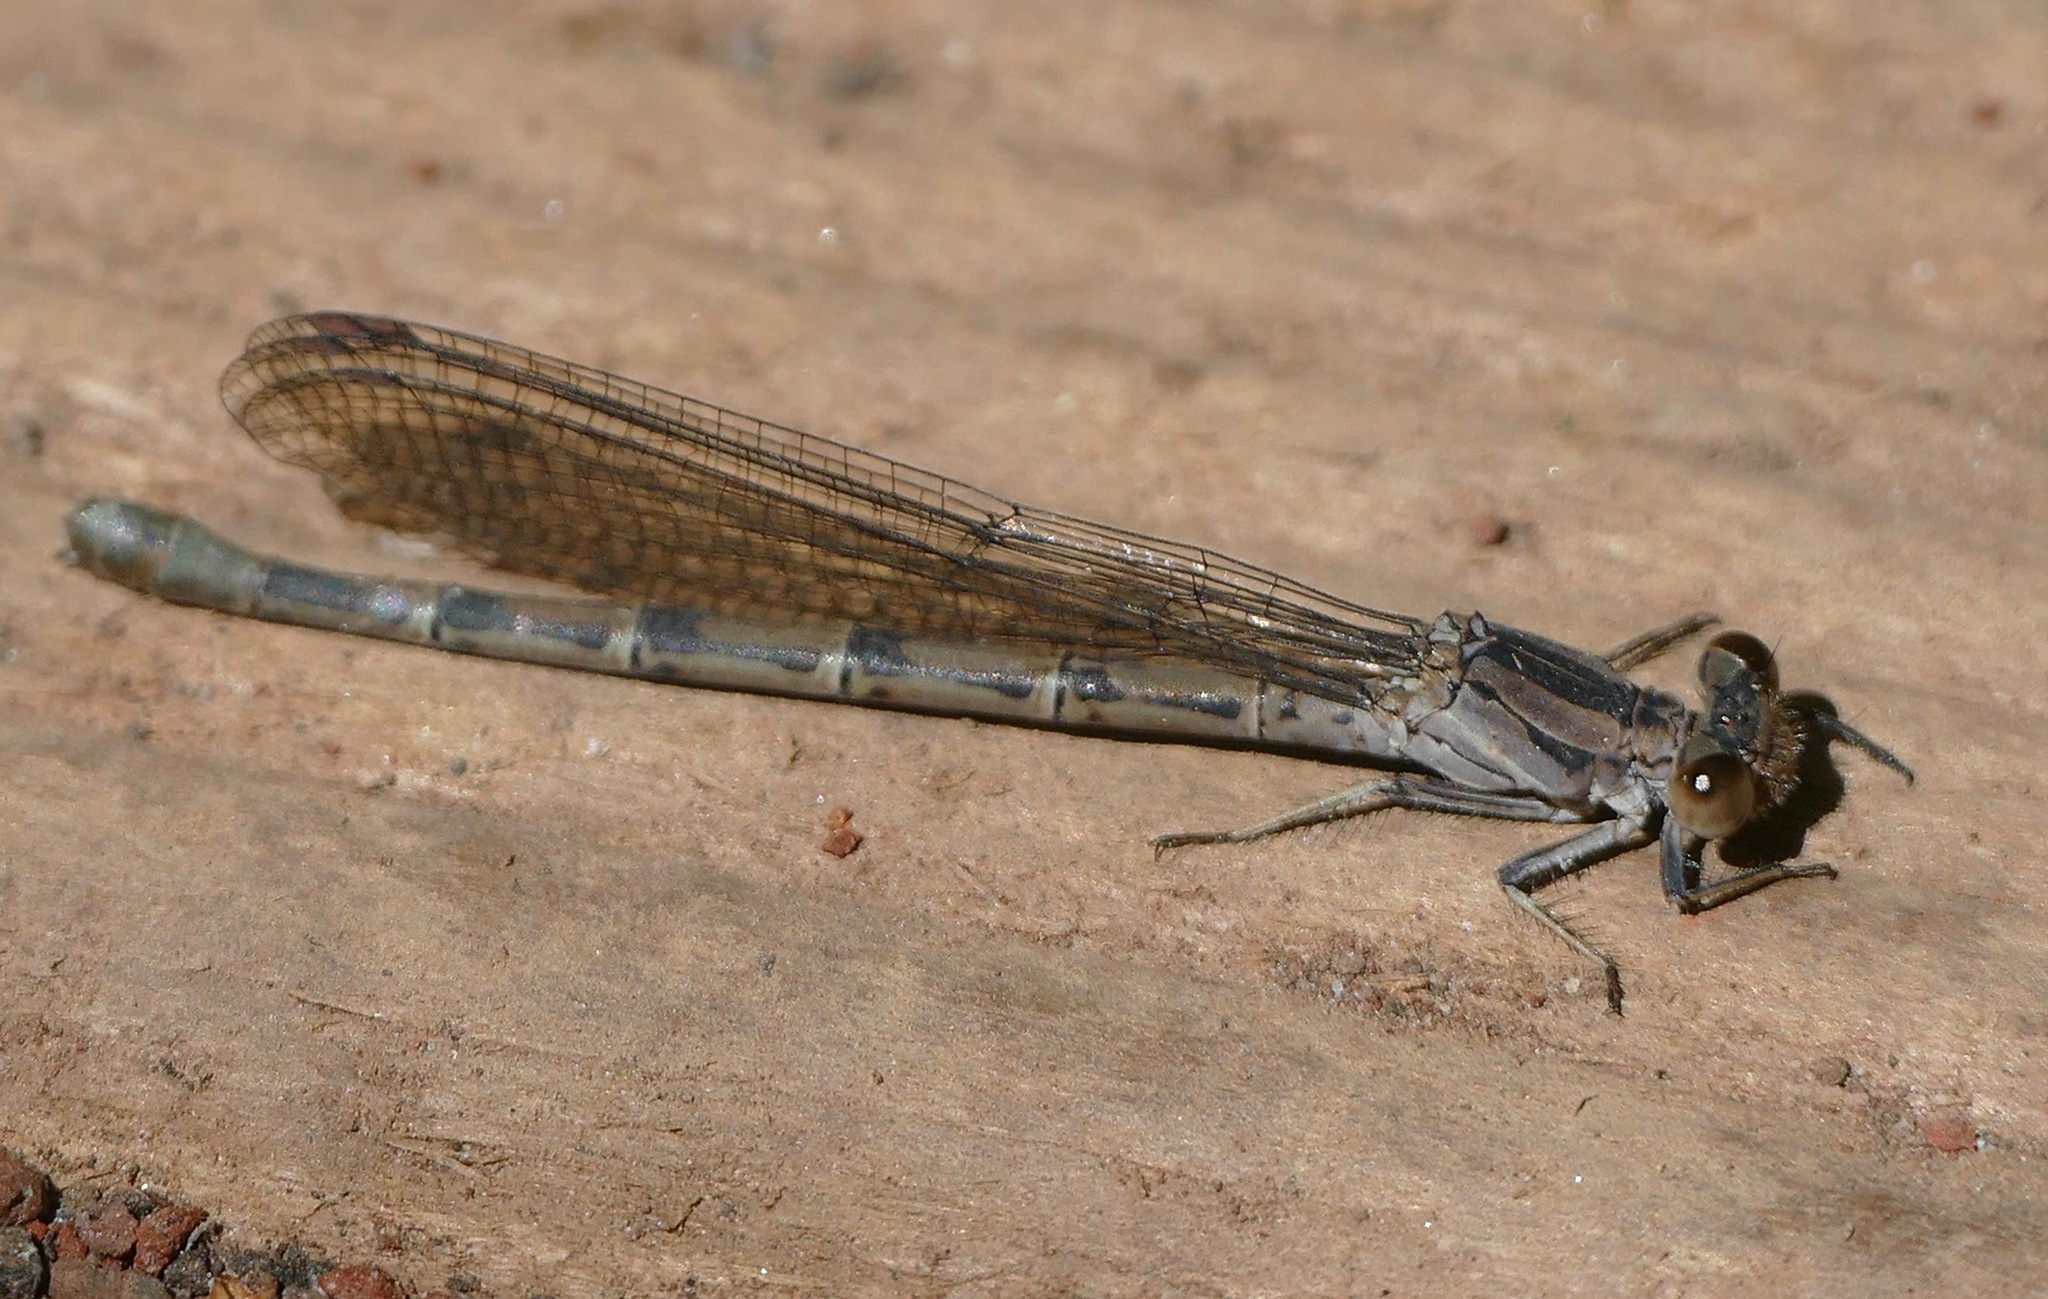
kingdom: Animalia
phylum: Arthropoda
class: Insecta
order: Odonata
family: Coenagrionidae
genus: Argia
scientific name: Argia vivida
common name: Vivid dancer
